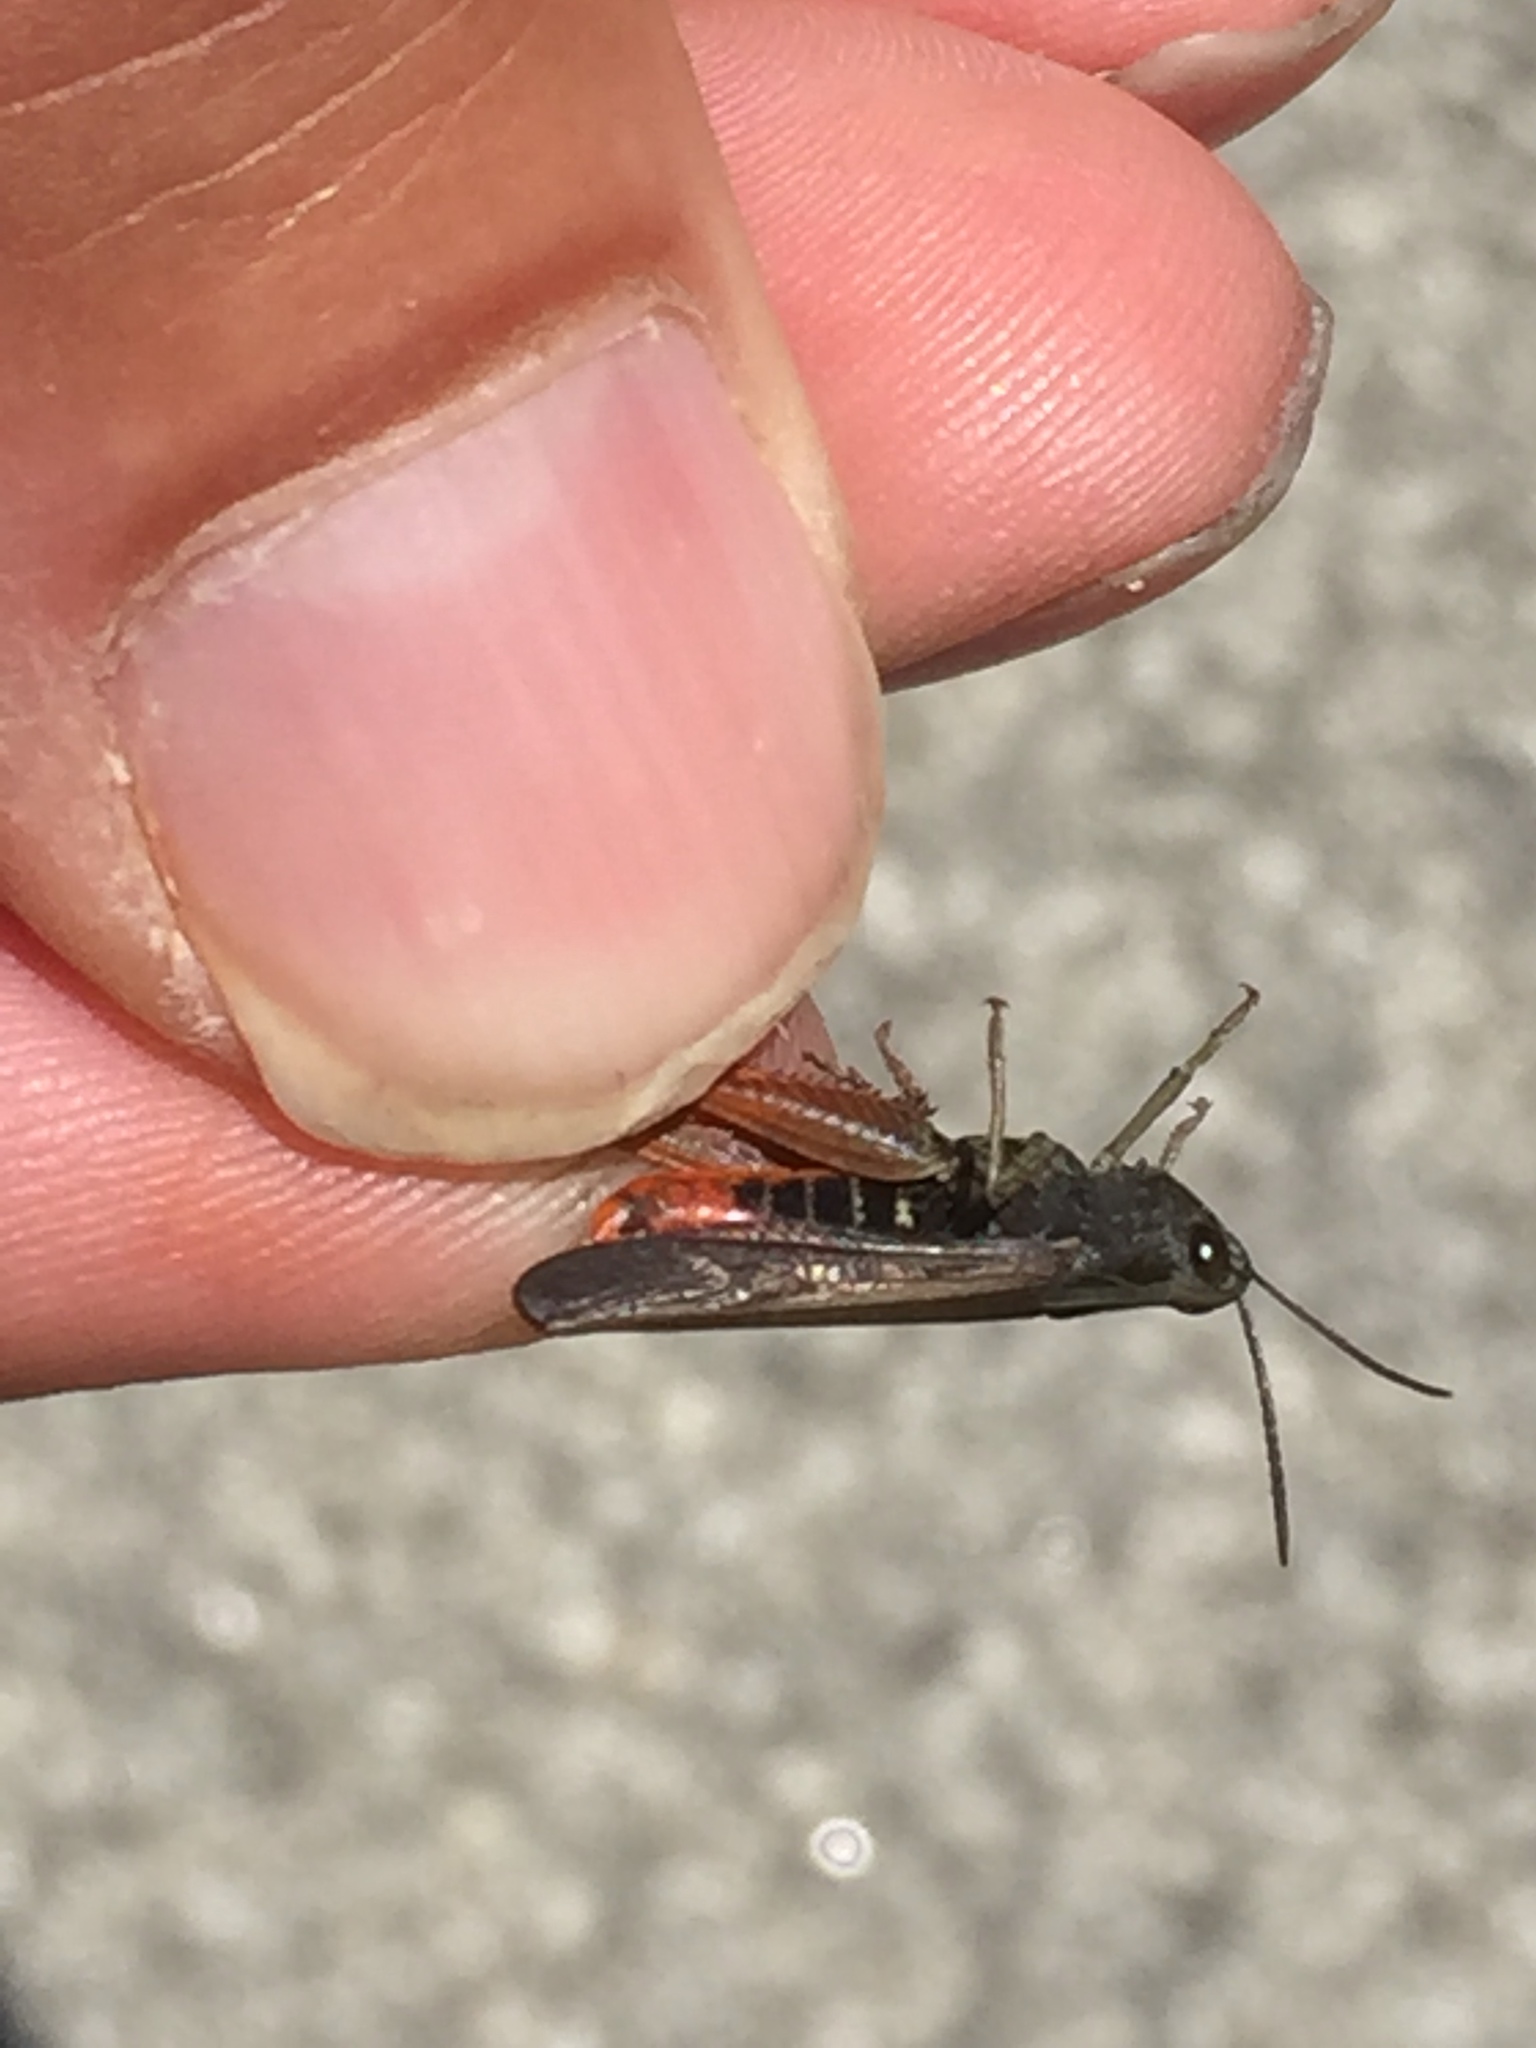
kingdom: Animalia
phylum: Arthropoda
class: Insecta
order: Orthoptera
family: Acrididae
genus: Omocestus
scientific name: Omocestus rufipes
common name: Woodland grasshopper
